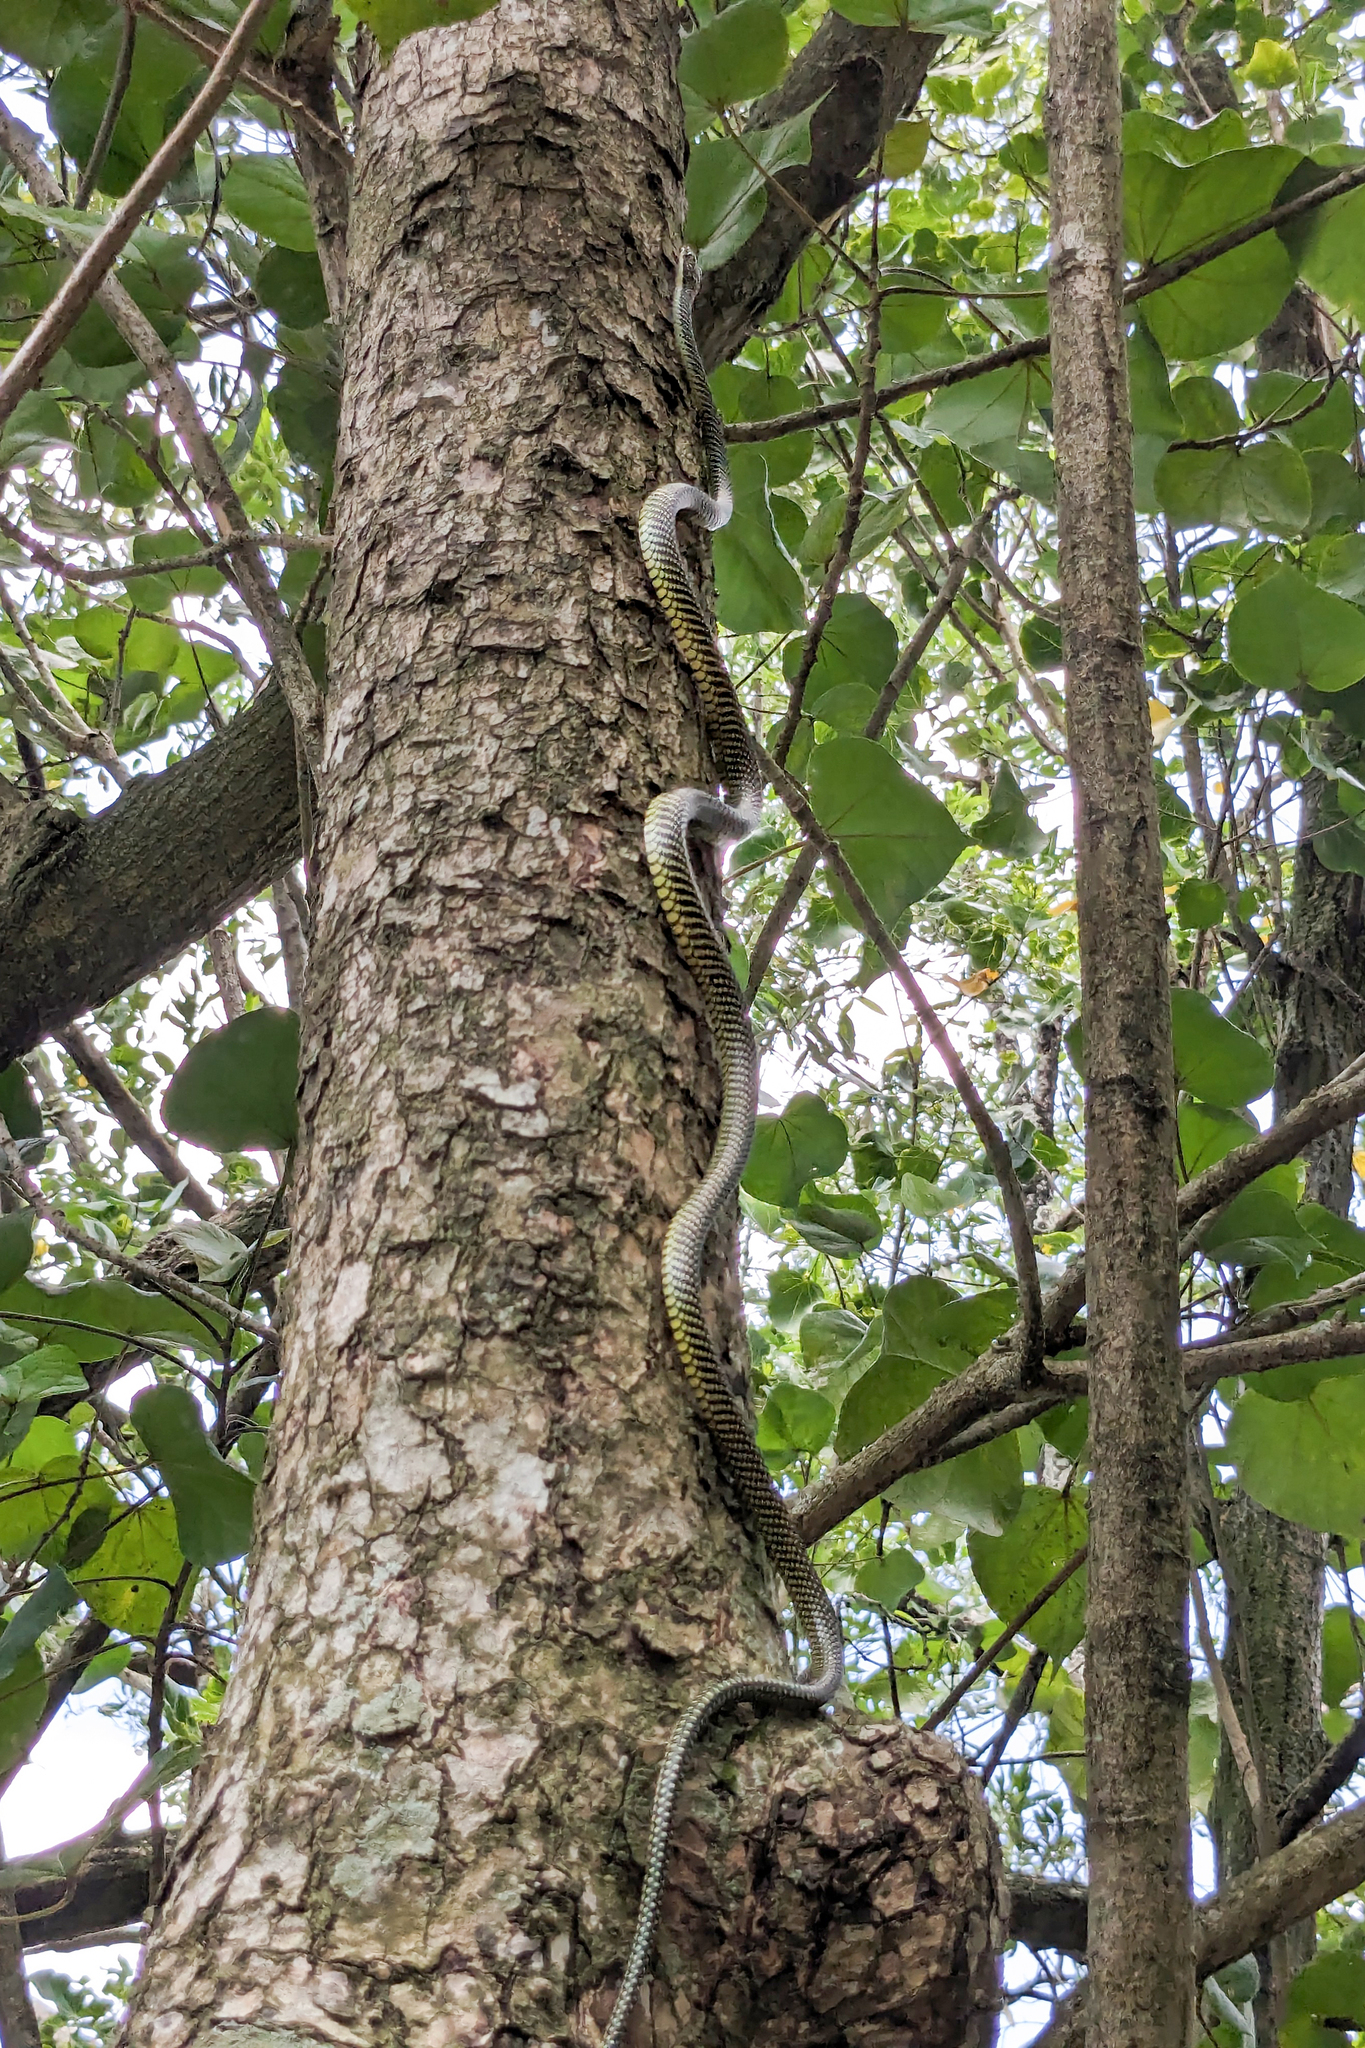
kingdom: Animalia
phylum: Chordata
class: Squamata
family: Colubridae
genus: Chrysopelea
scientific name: Chrysopelea paradisi
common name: Paradise tree snake
